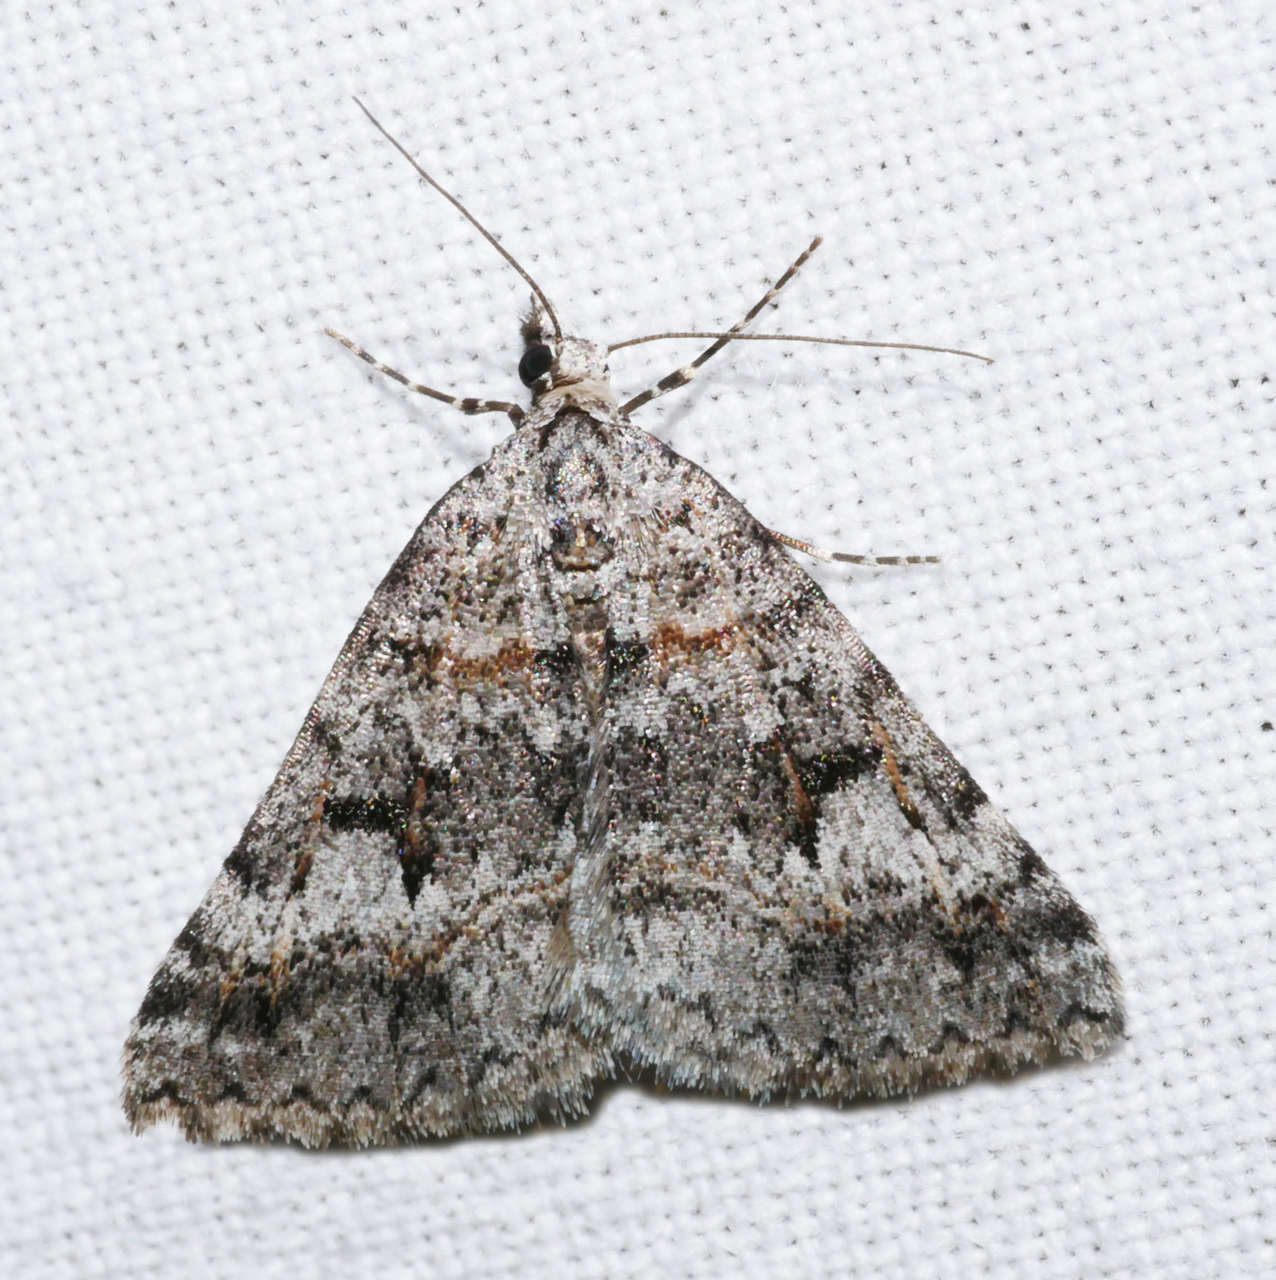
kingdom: Animalia
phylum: Arthropoda
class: Insecta
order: Lepidoptera
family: Geometridae
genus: Dichromodes
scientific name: Dichromodes longidens
